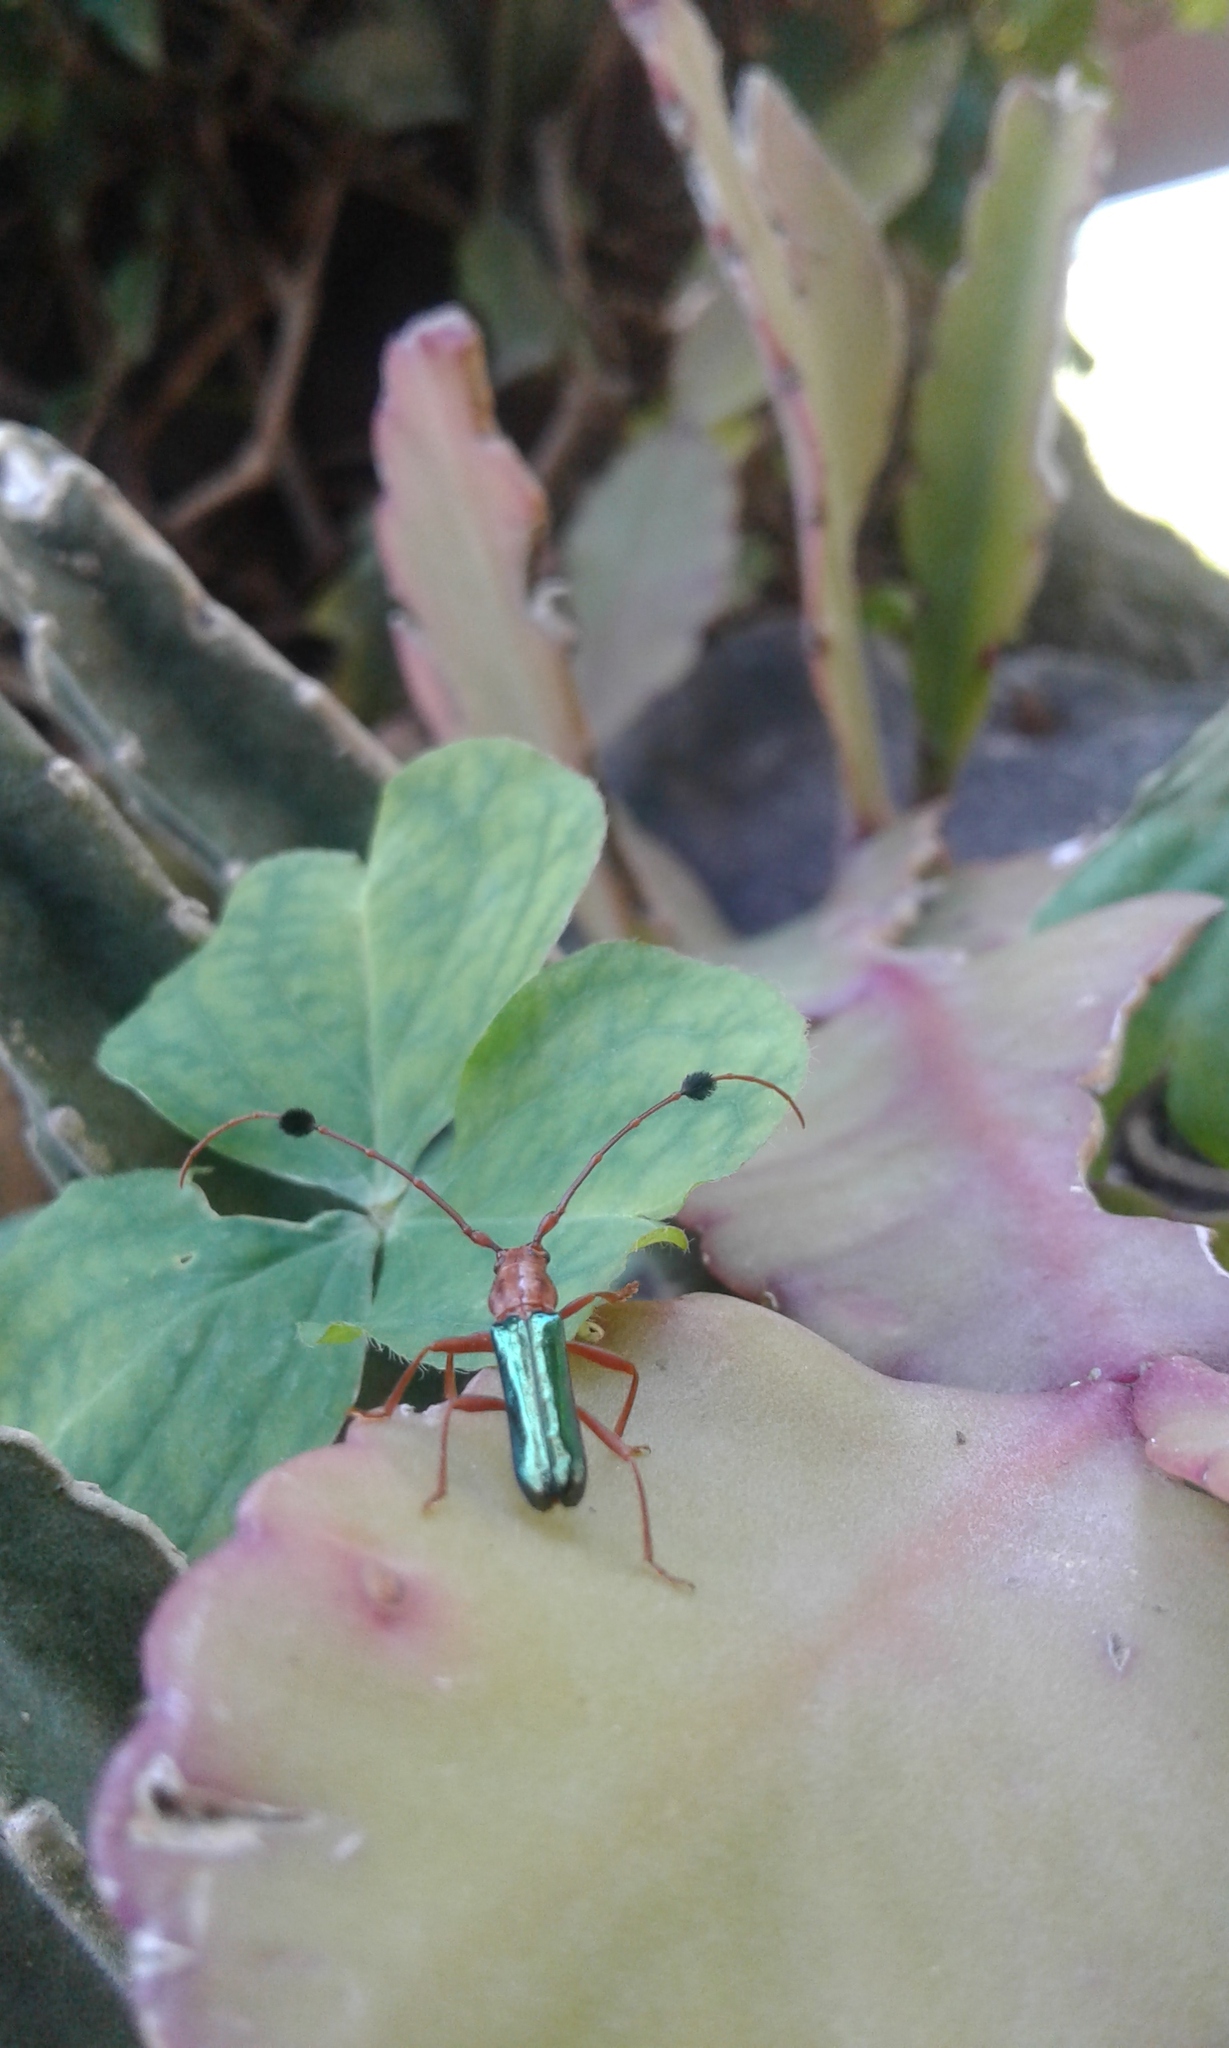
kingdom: Animalia
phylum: Arthropoda
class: Insecta
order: Coleoptera
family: Cerambycidae
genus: Compsocerus
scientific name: Compsocerus violaceus
